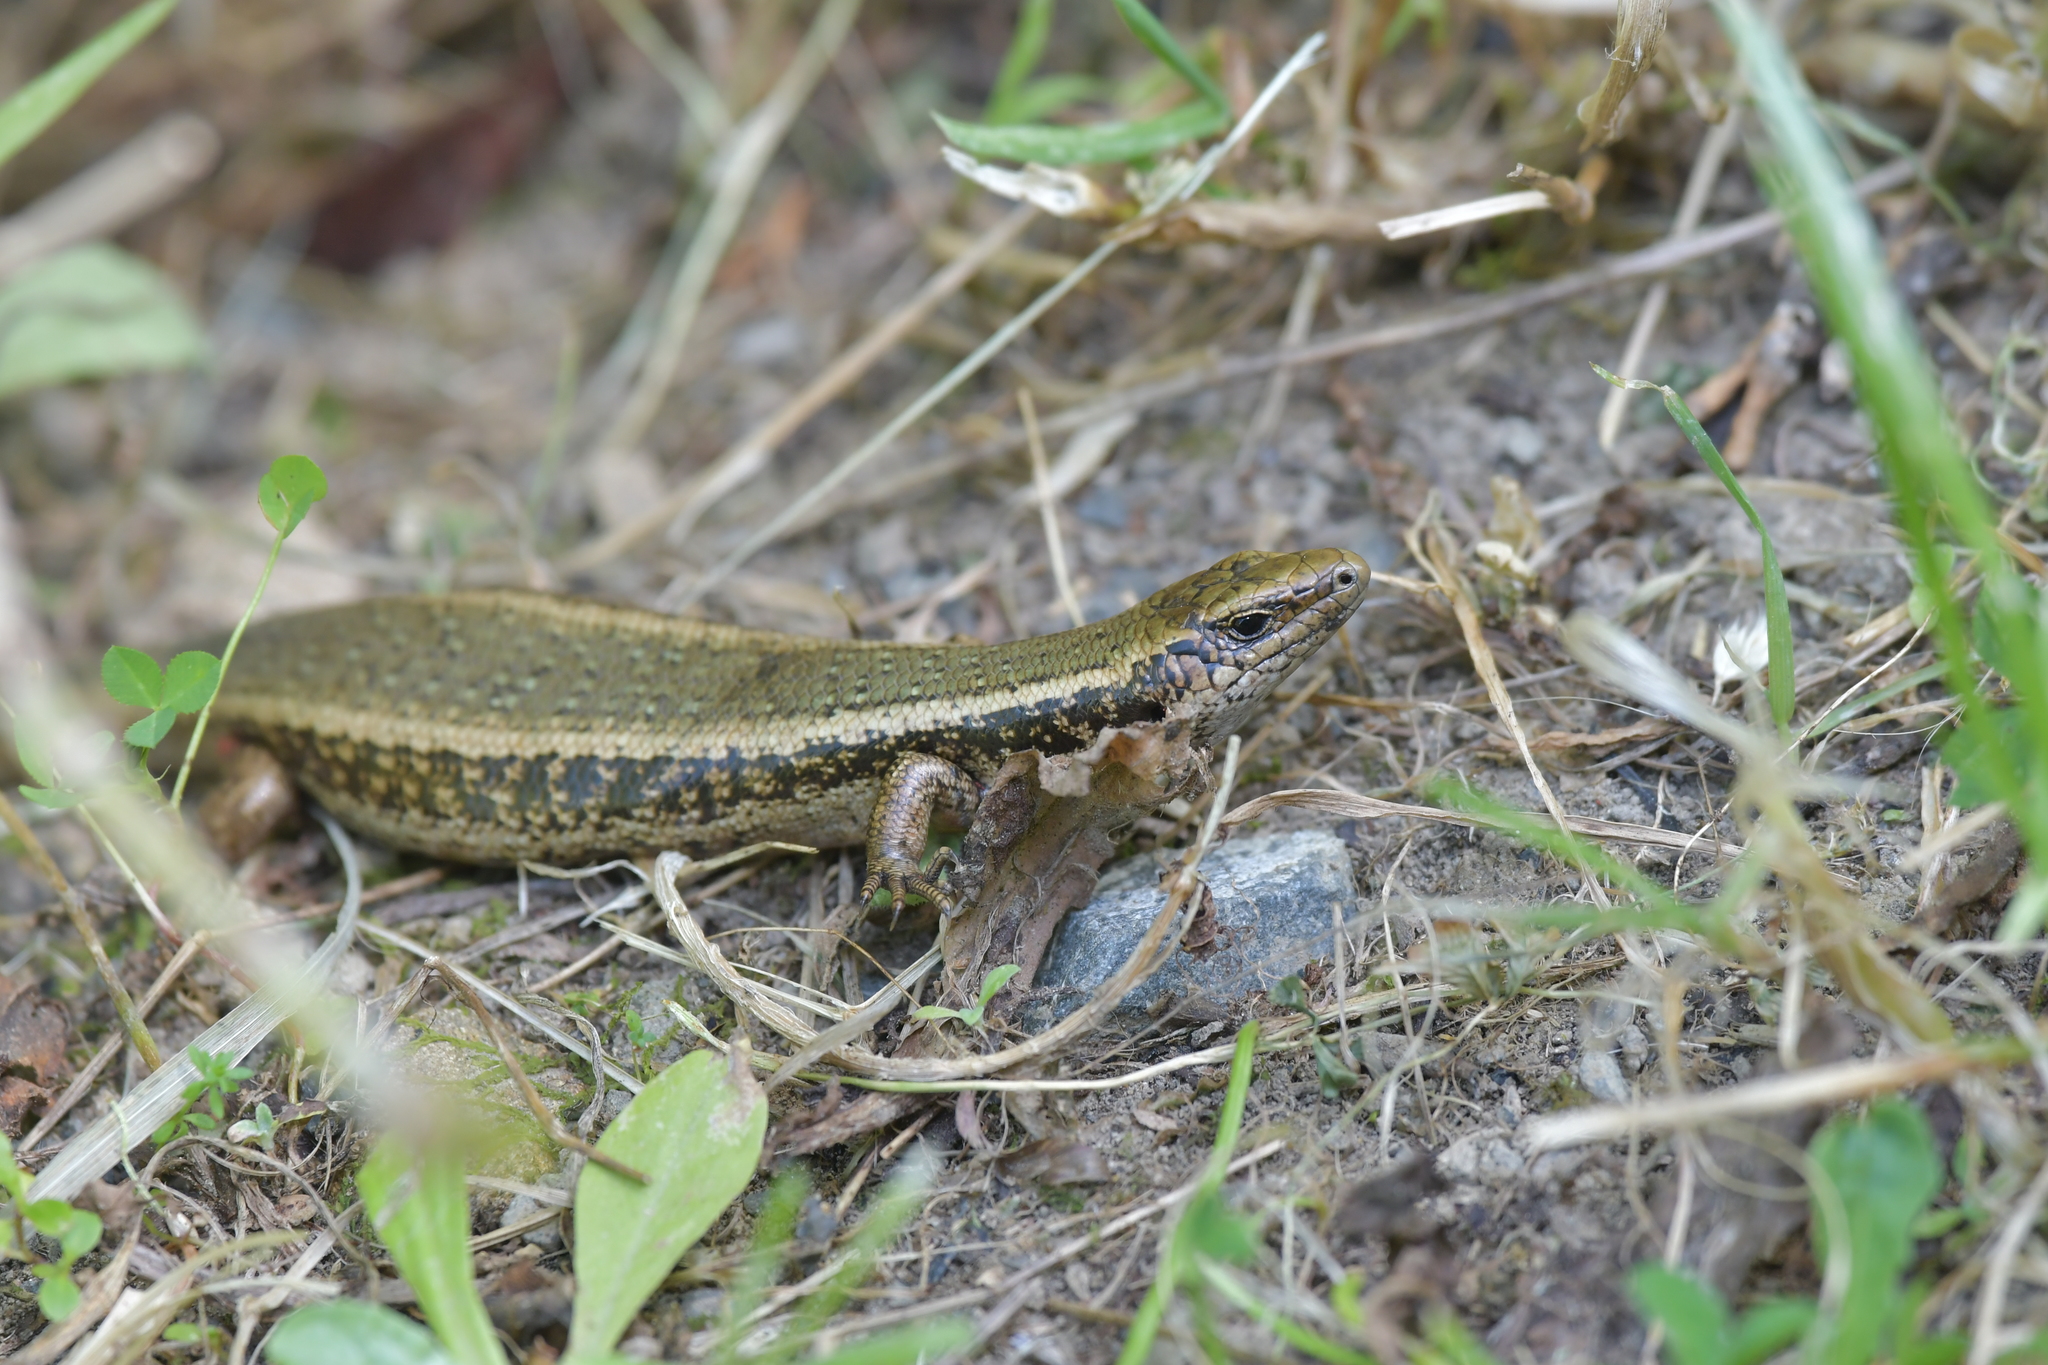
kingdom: Animalia
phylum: Chordata
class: Squamata
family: Scincidae
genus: Oligosoma
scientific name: Oligosoma kokowai
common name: Northern spotted skink
